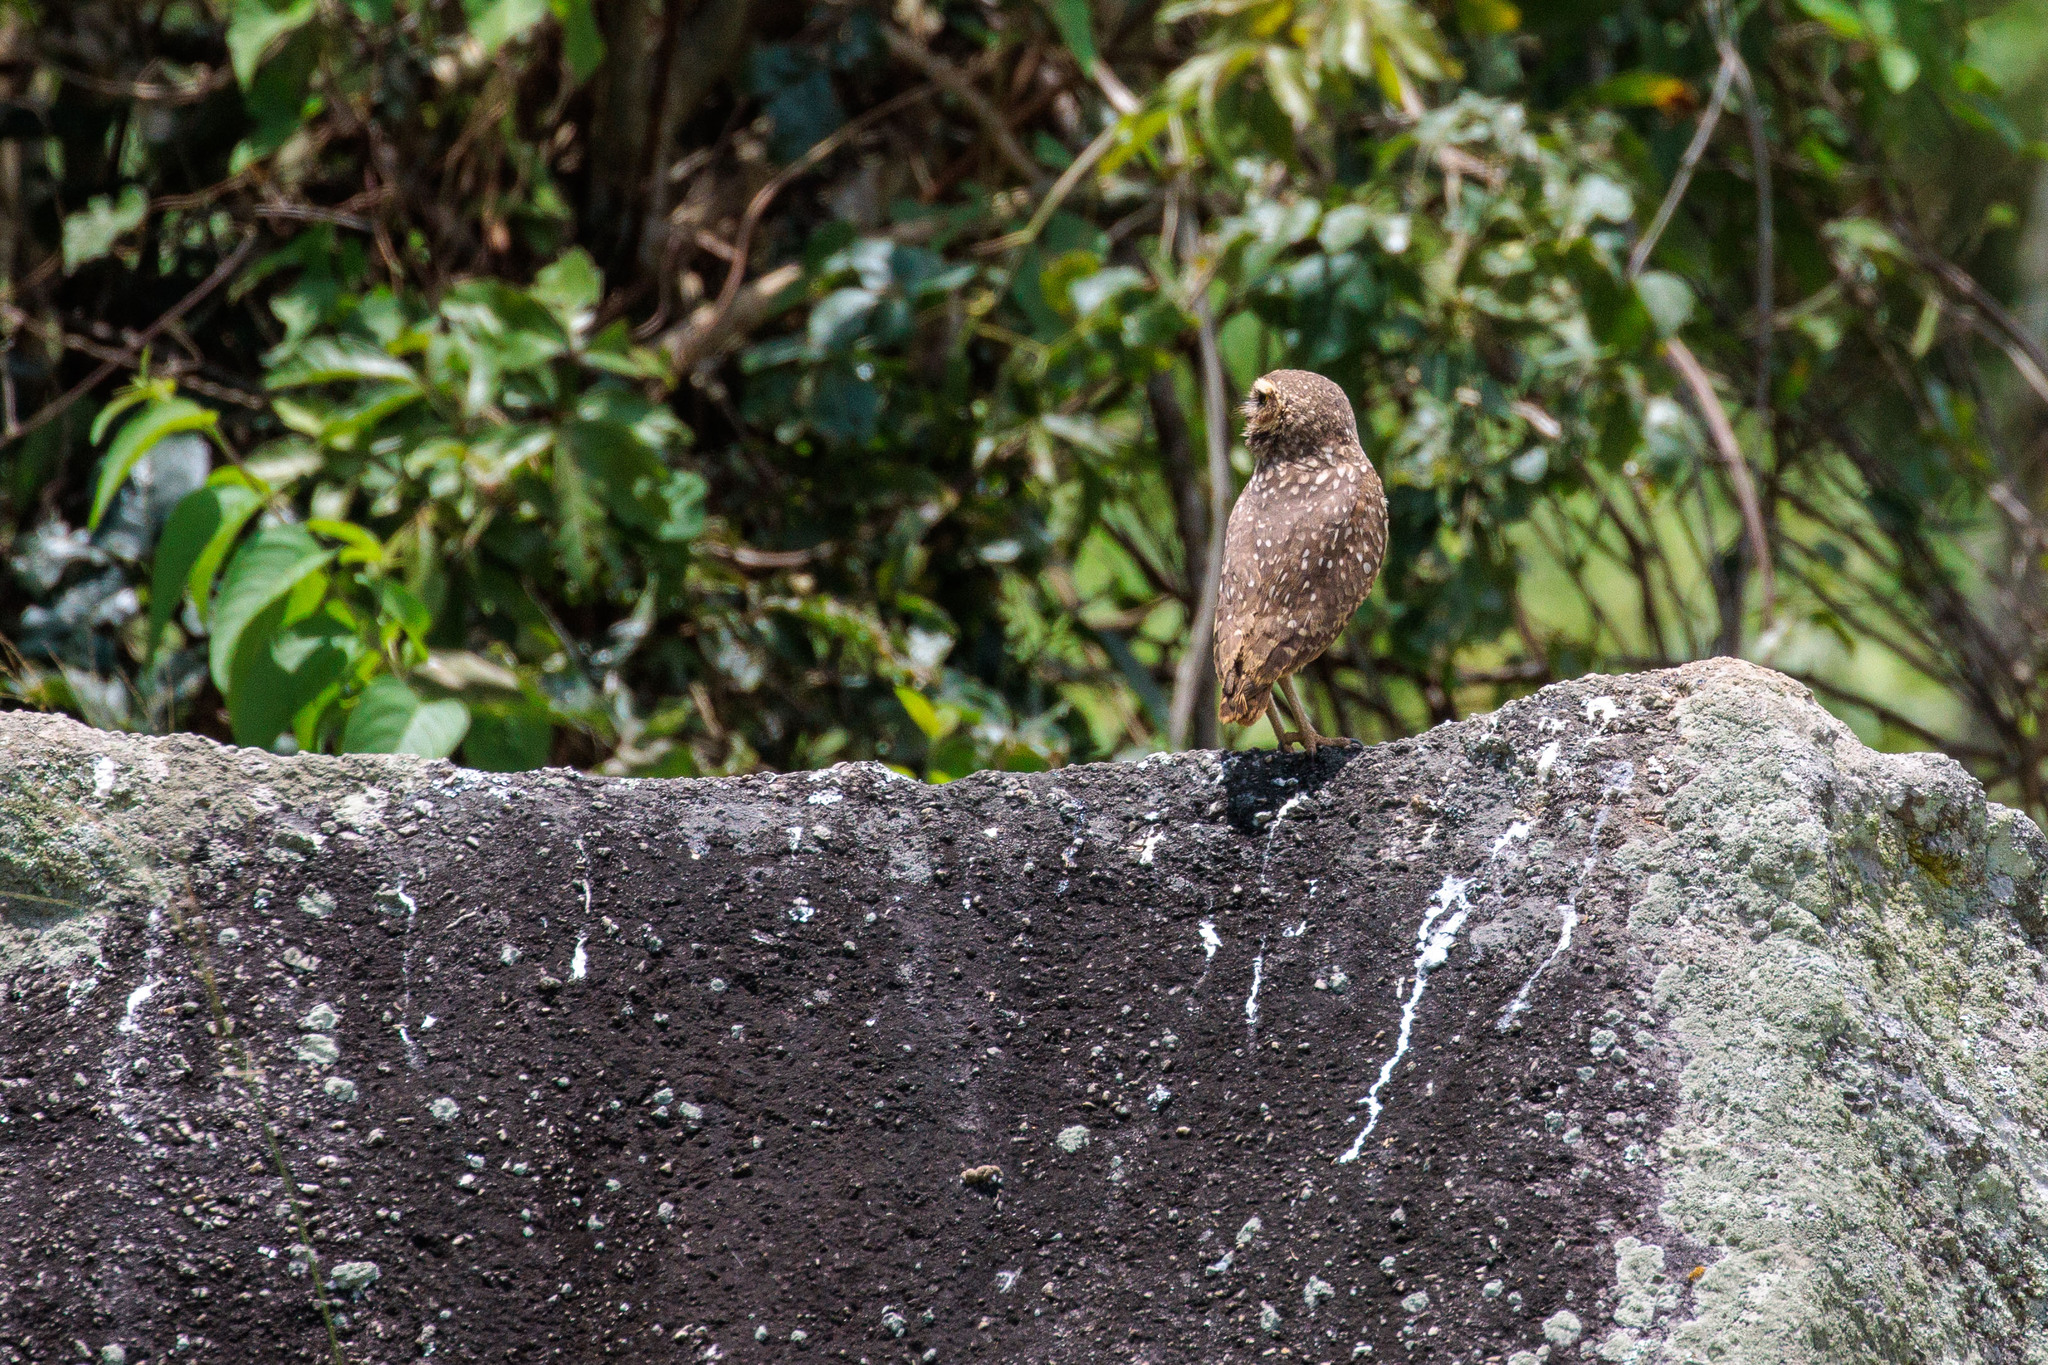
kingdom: Animalia
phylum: Chordata
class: Aves
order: Strigiformes
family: Strigidae
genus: Athene
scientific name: Athene cunicularia
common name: Burrowing owl
